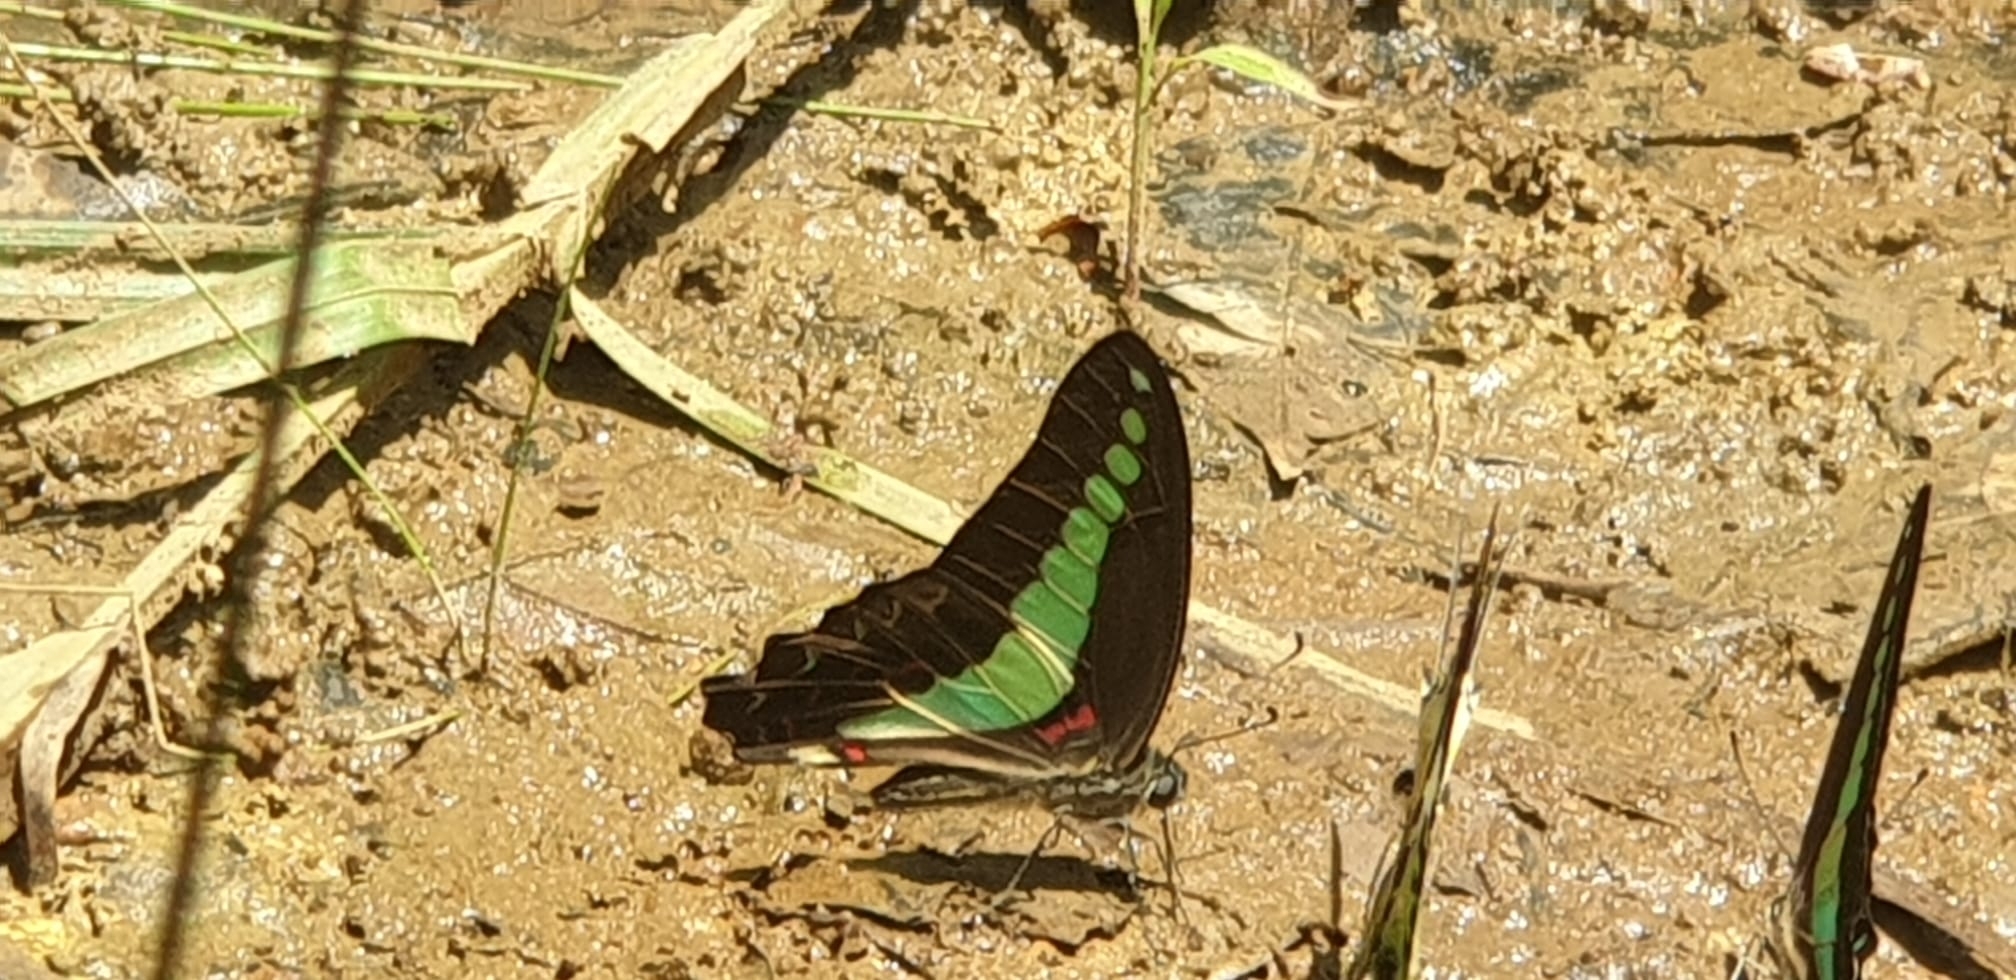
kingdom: Fungi
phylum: Ascomycota
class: Sordariomycetes
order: Microascales
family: Microascaceae
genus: Graphium
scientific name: Graphium sarpedon
